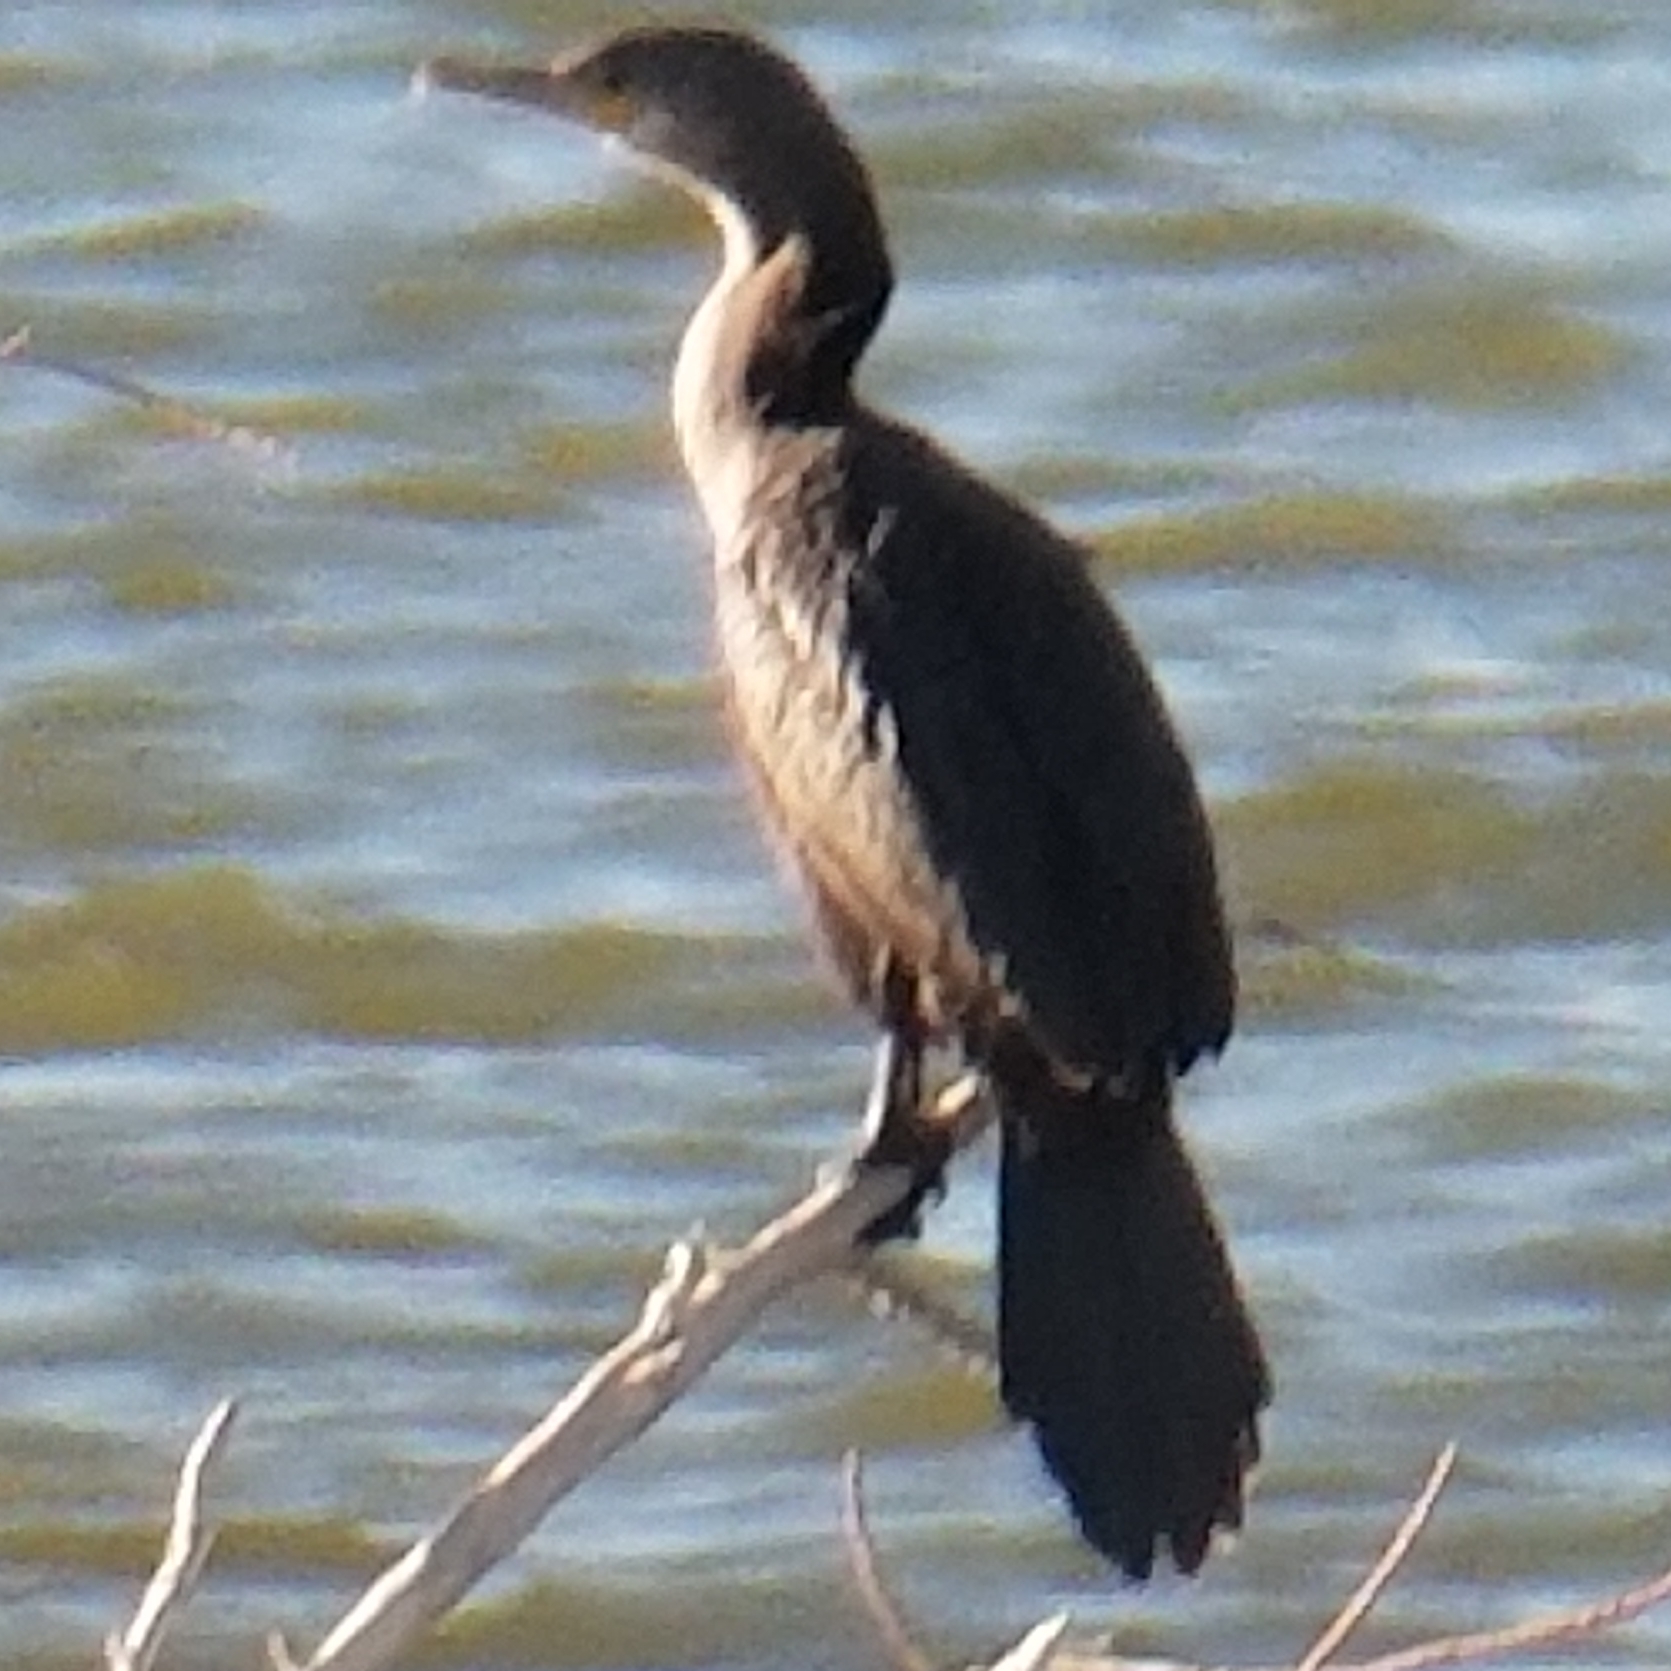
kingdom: Animalia
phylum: Chordata
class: Aves
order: Suliformes
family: Phalacrocoracidae
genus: Phalacrocorax
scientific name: Phalacrocorax brasilianus
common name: Neotropic cormorant
